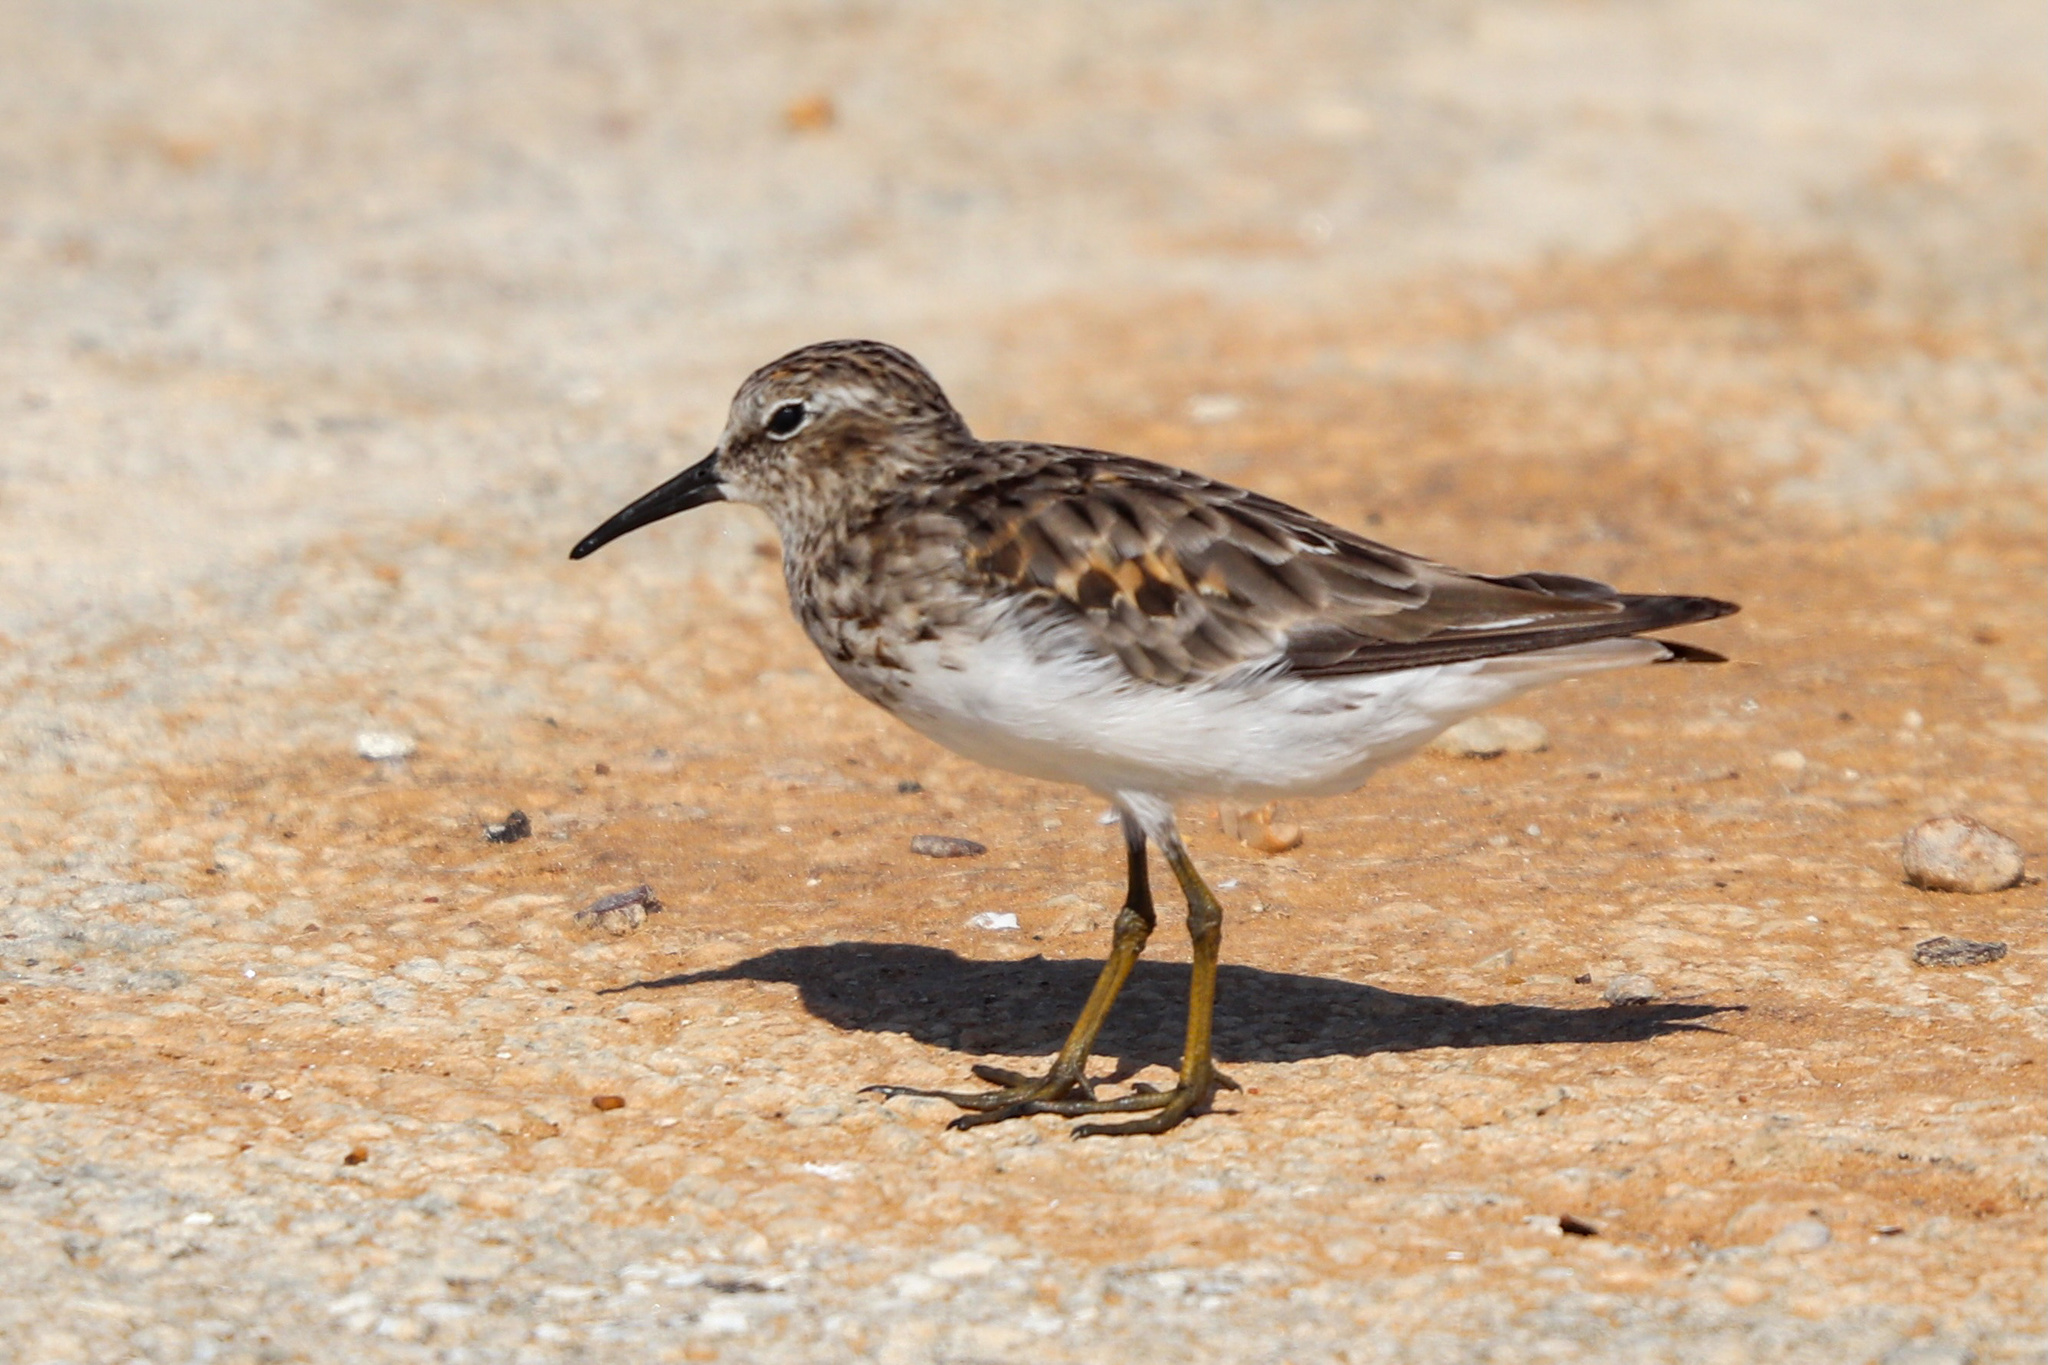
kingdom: Animalia
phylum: Chordata
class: Aves
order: Charadriiformes
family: Scolopacidae
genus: Calidris
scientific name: Calidris minutilla
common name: Least sandpiper
